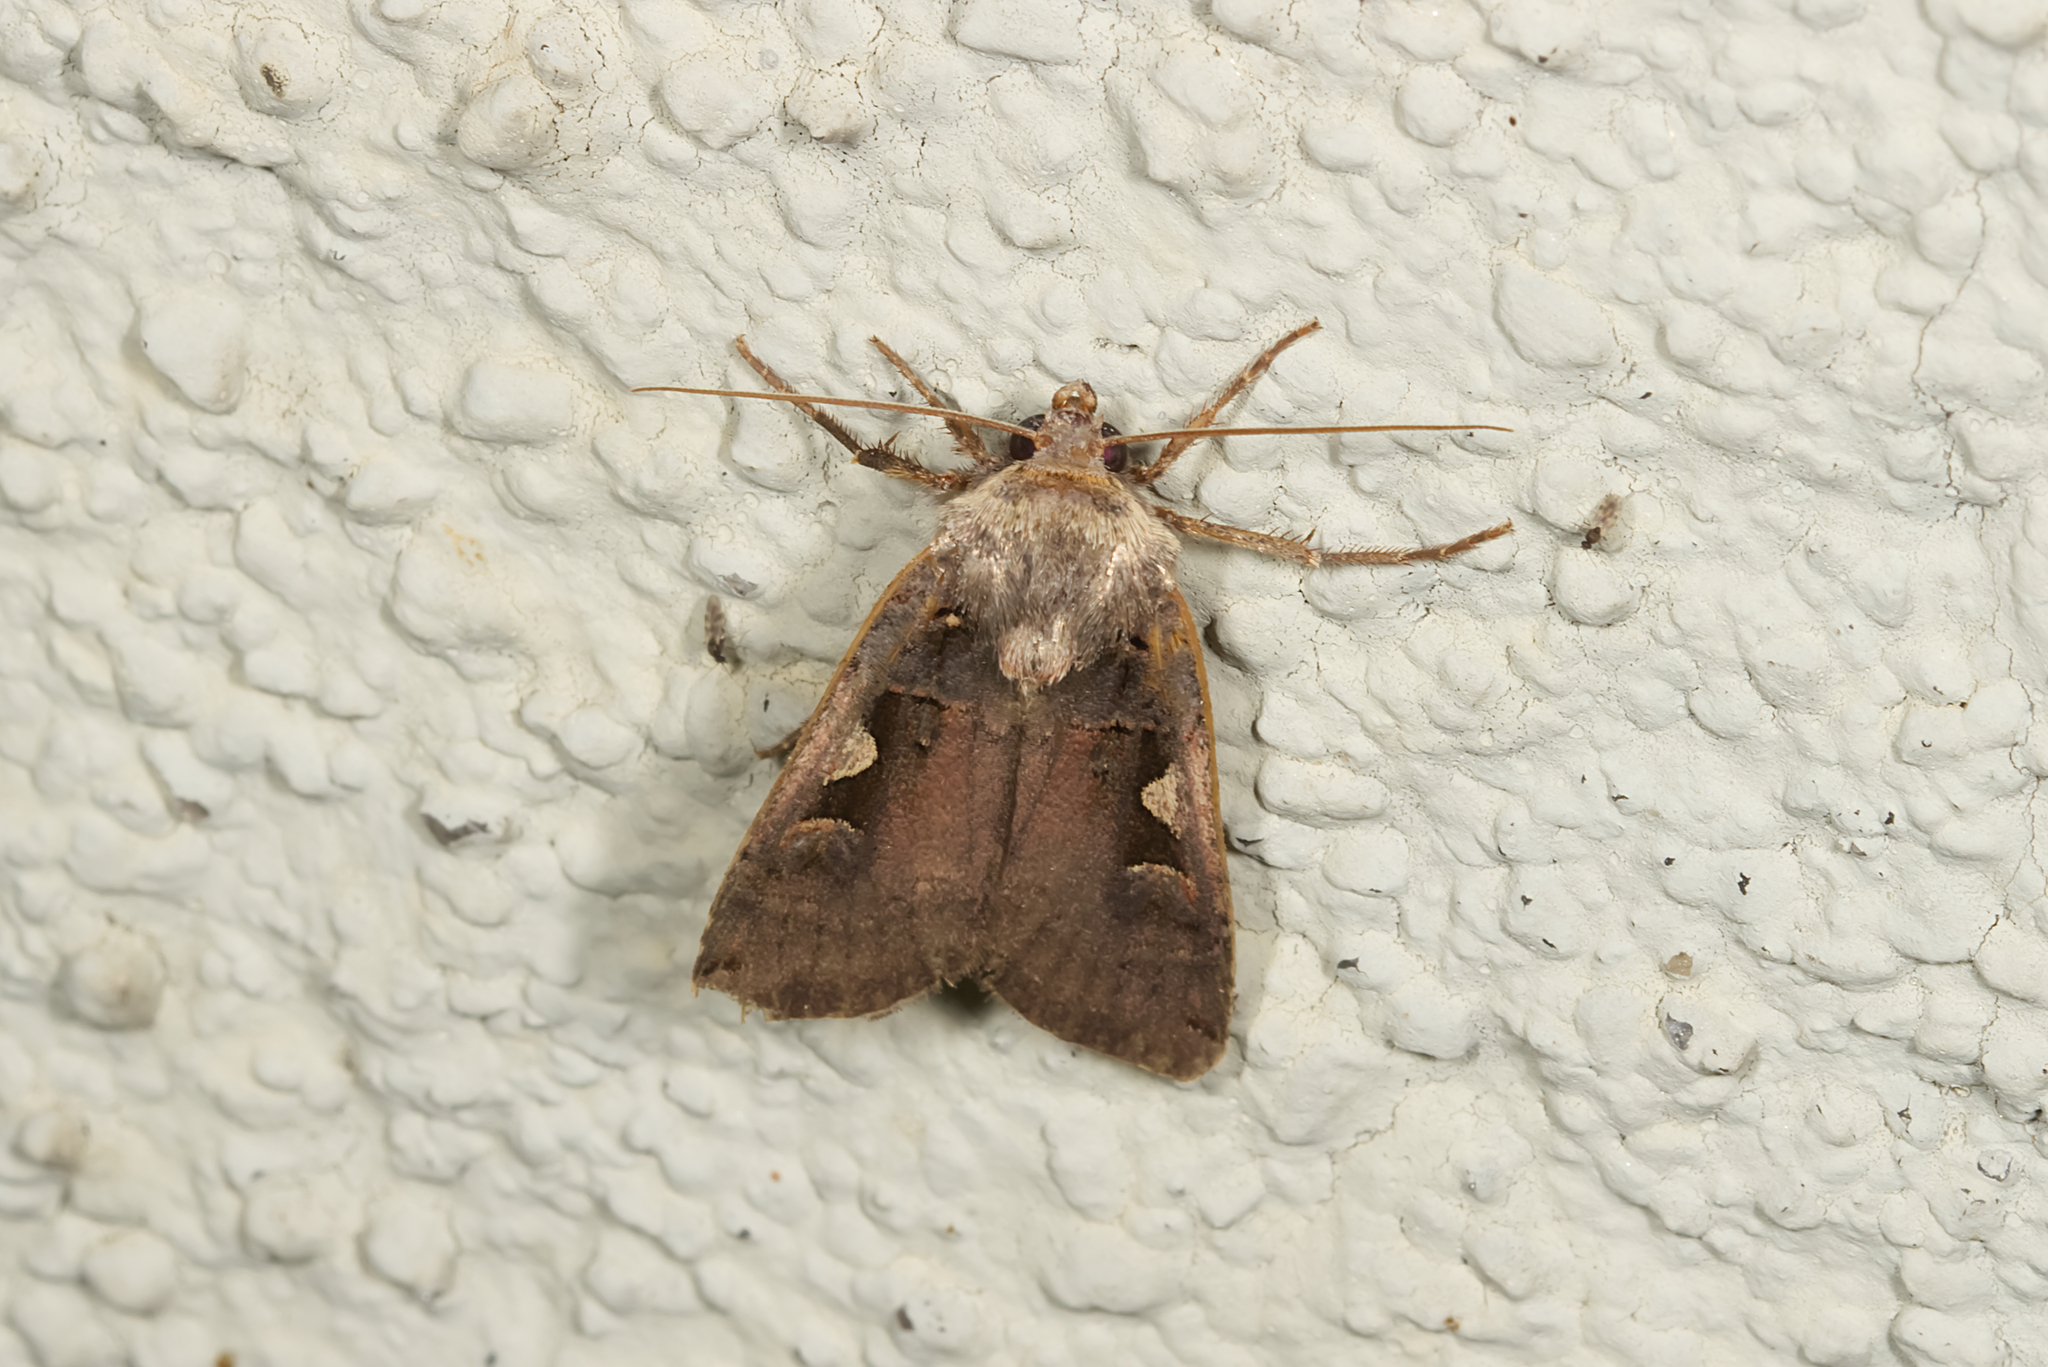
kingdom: Animalia
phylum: Arthropoda
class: Insecta
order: Lepidoptera
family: Noctuidae
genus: Xestia
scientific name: Xestia c-nigrum
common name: Setaceous hebrew character
